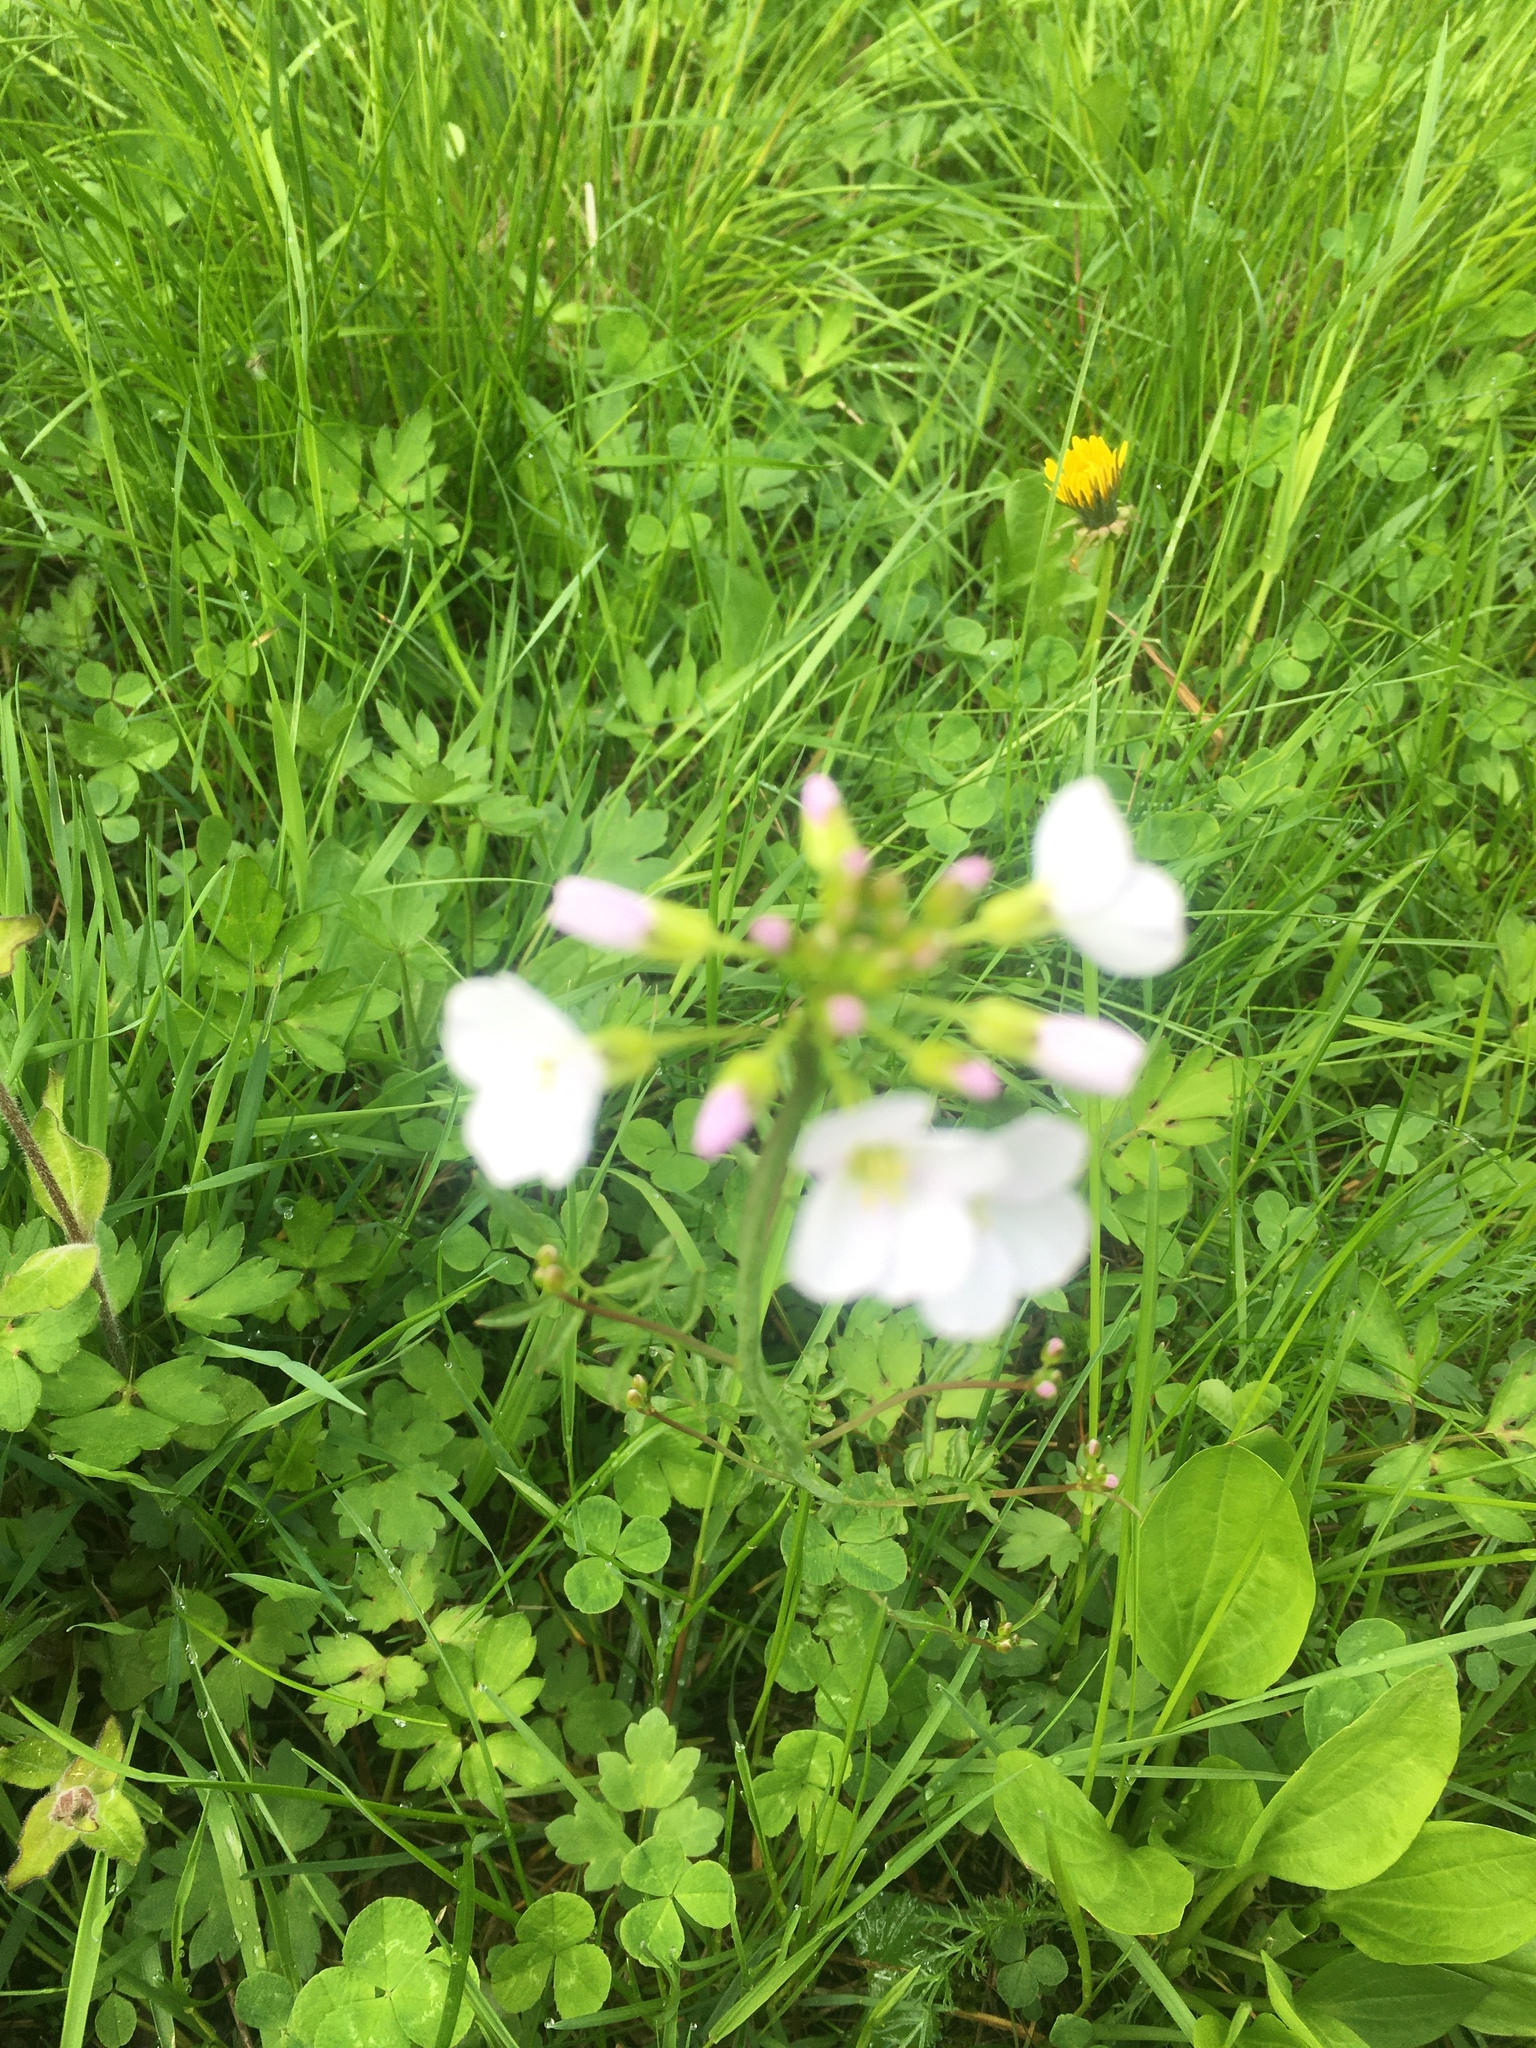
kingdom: Plantae
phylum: Tracheophyta
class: Magnoliopsida
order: Brassicales
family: Brassicaceae
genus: Cardamine
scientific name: Cardamine dentata
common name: Toothed bittercress
